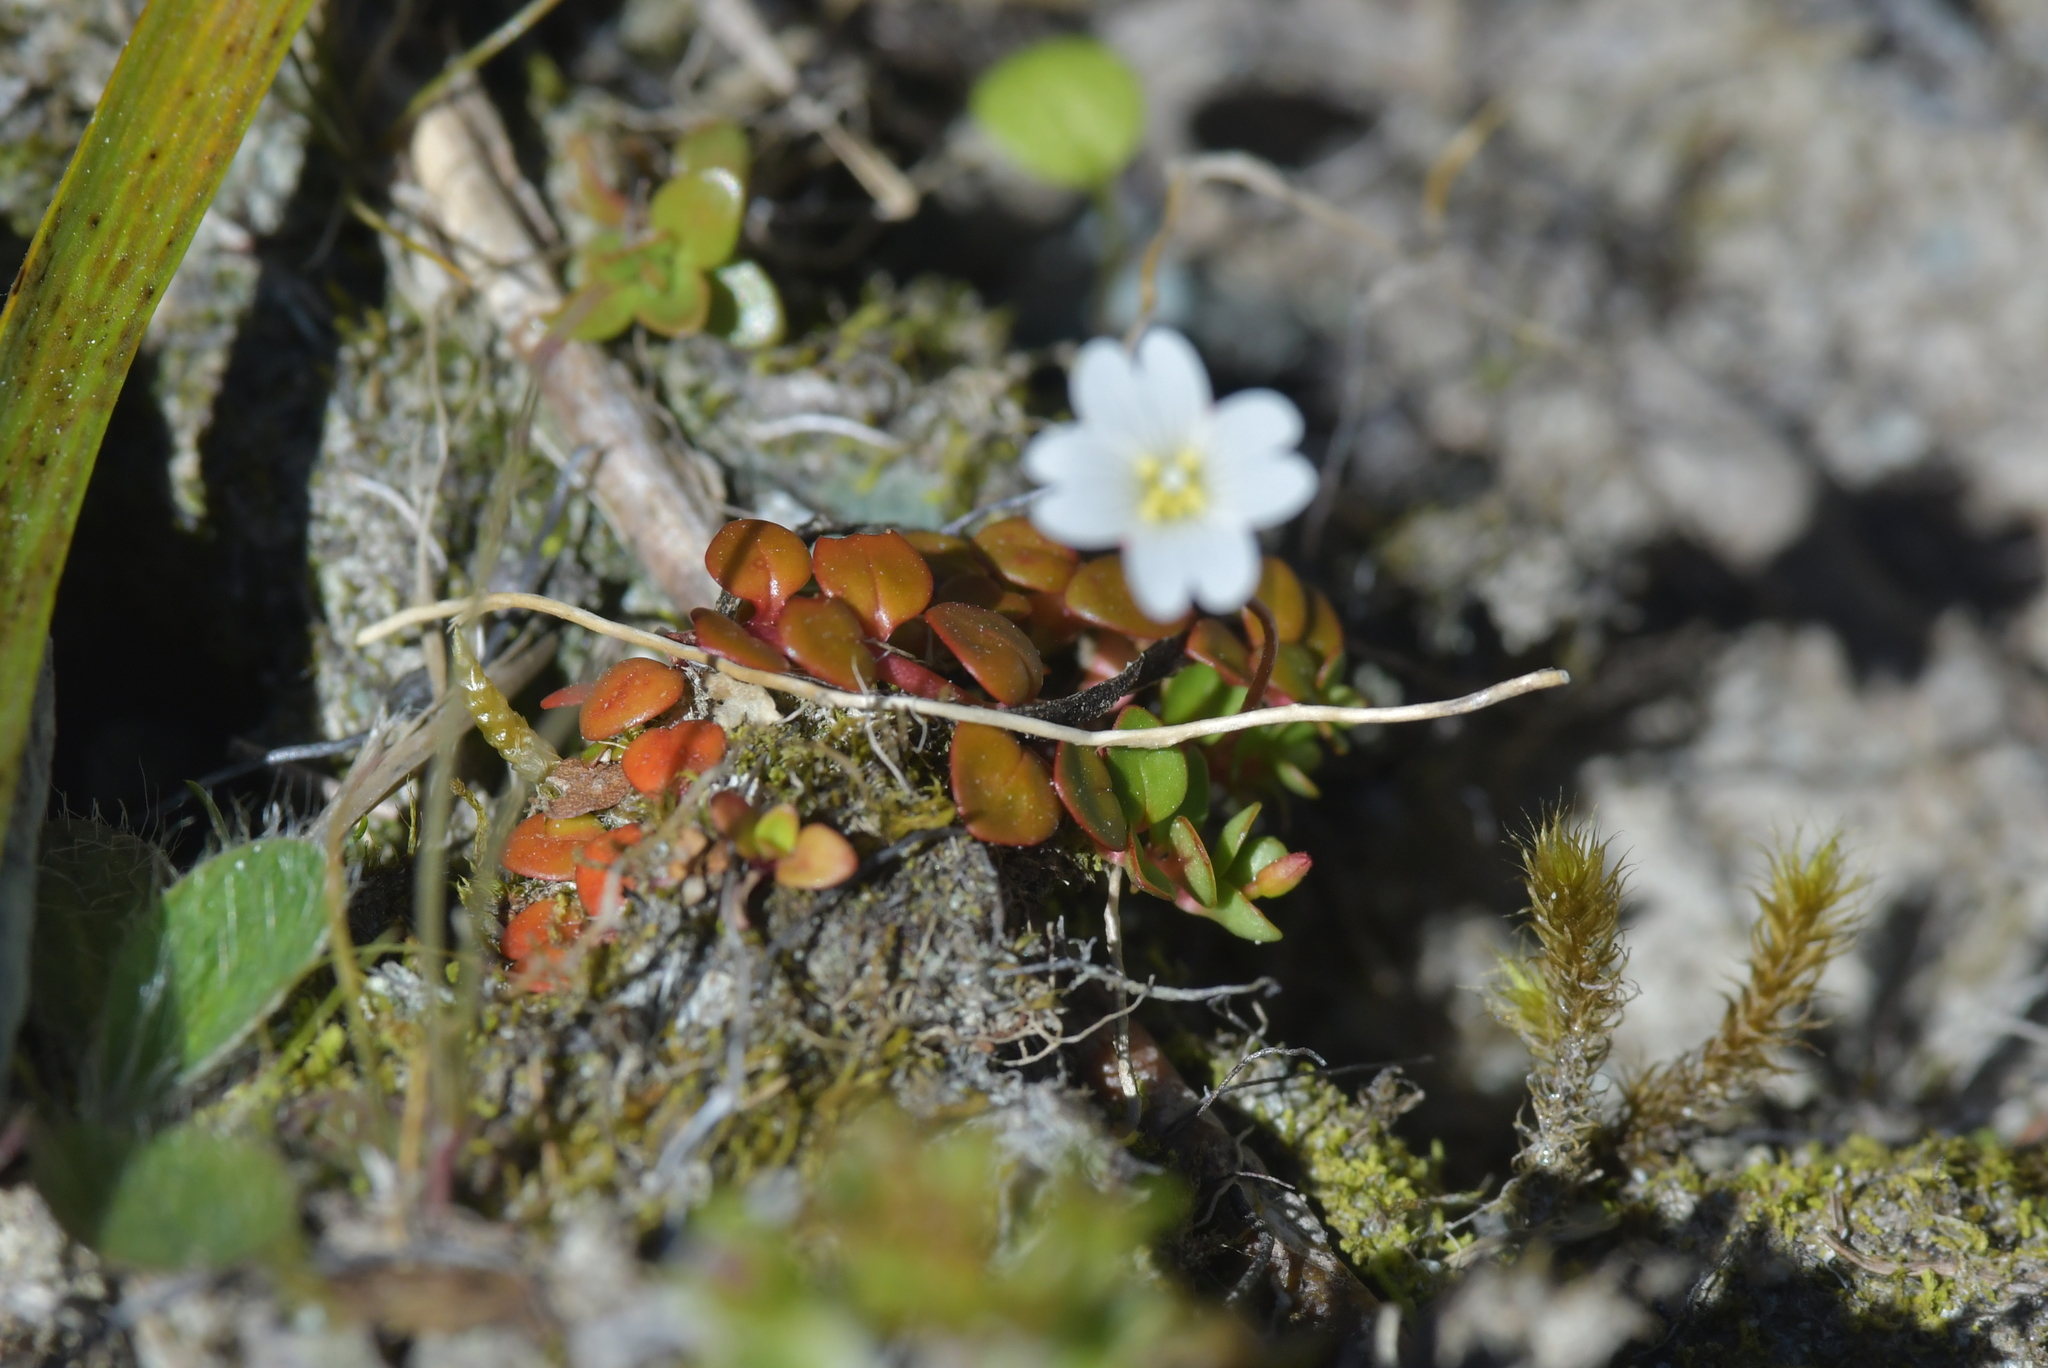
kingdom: Plantae
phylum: Tracheophyta
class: Magnoliopsida
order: Myrtales
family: Onagraceae
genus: Epilobium
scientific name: Epilobium pernitens
